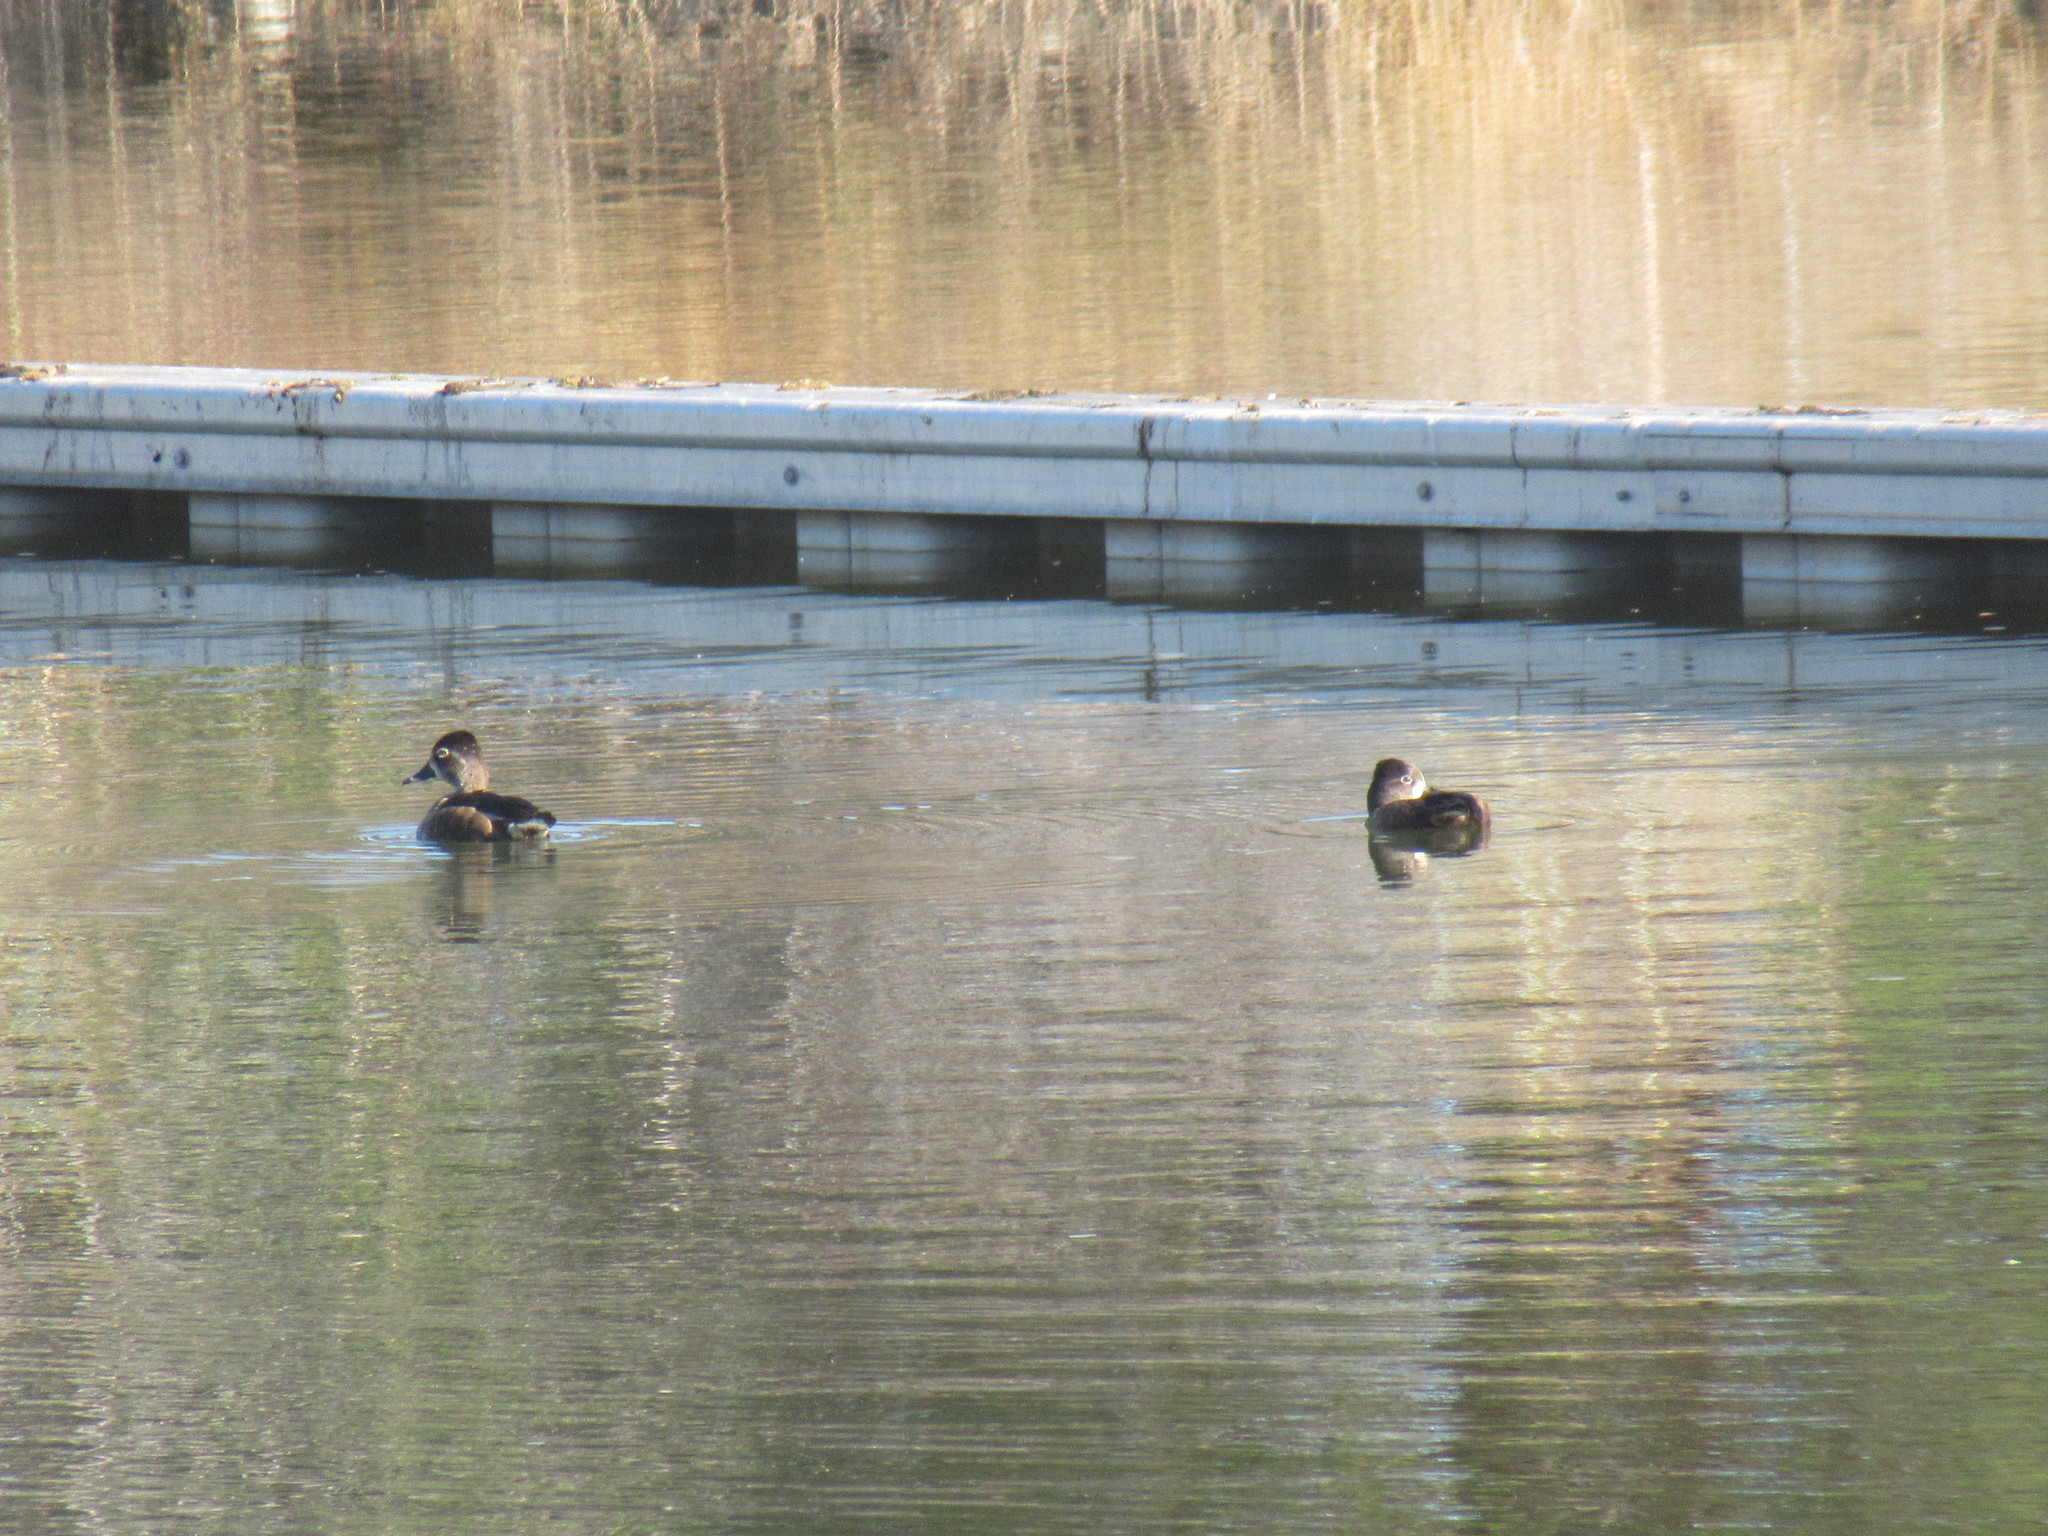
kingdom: Animalia
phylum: Chordata
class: Aves
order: Anseriformes
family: Anatidae
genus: Aythya
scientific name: Aythya collaris
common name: Ring-necked duck
